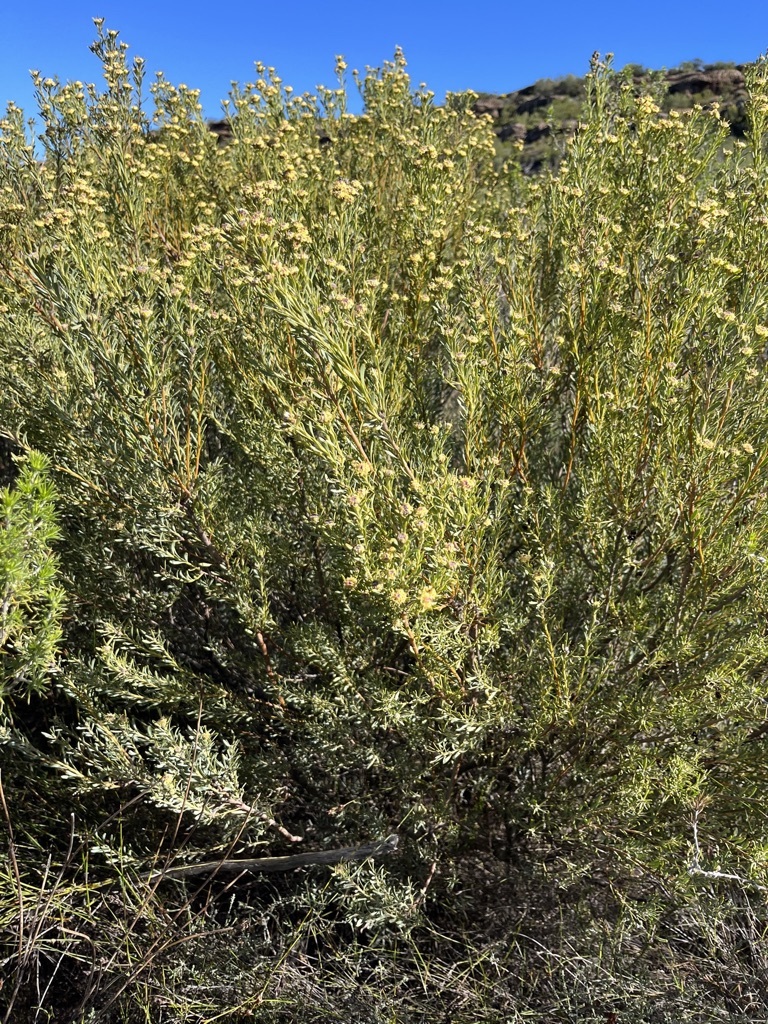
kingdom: Plantae
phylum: Tracheophyta
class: Magnoliopsida
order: Proteales
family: Proteaceae
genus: Leucadendron
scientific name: Leucadendron brunioides
